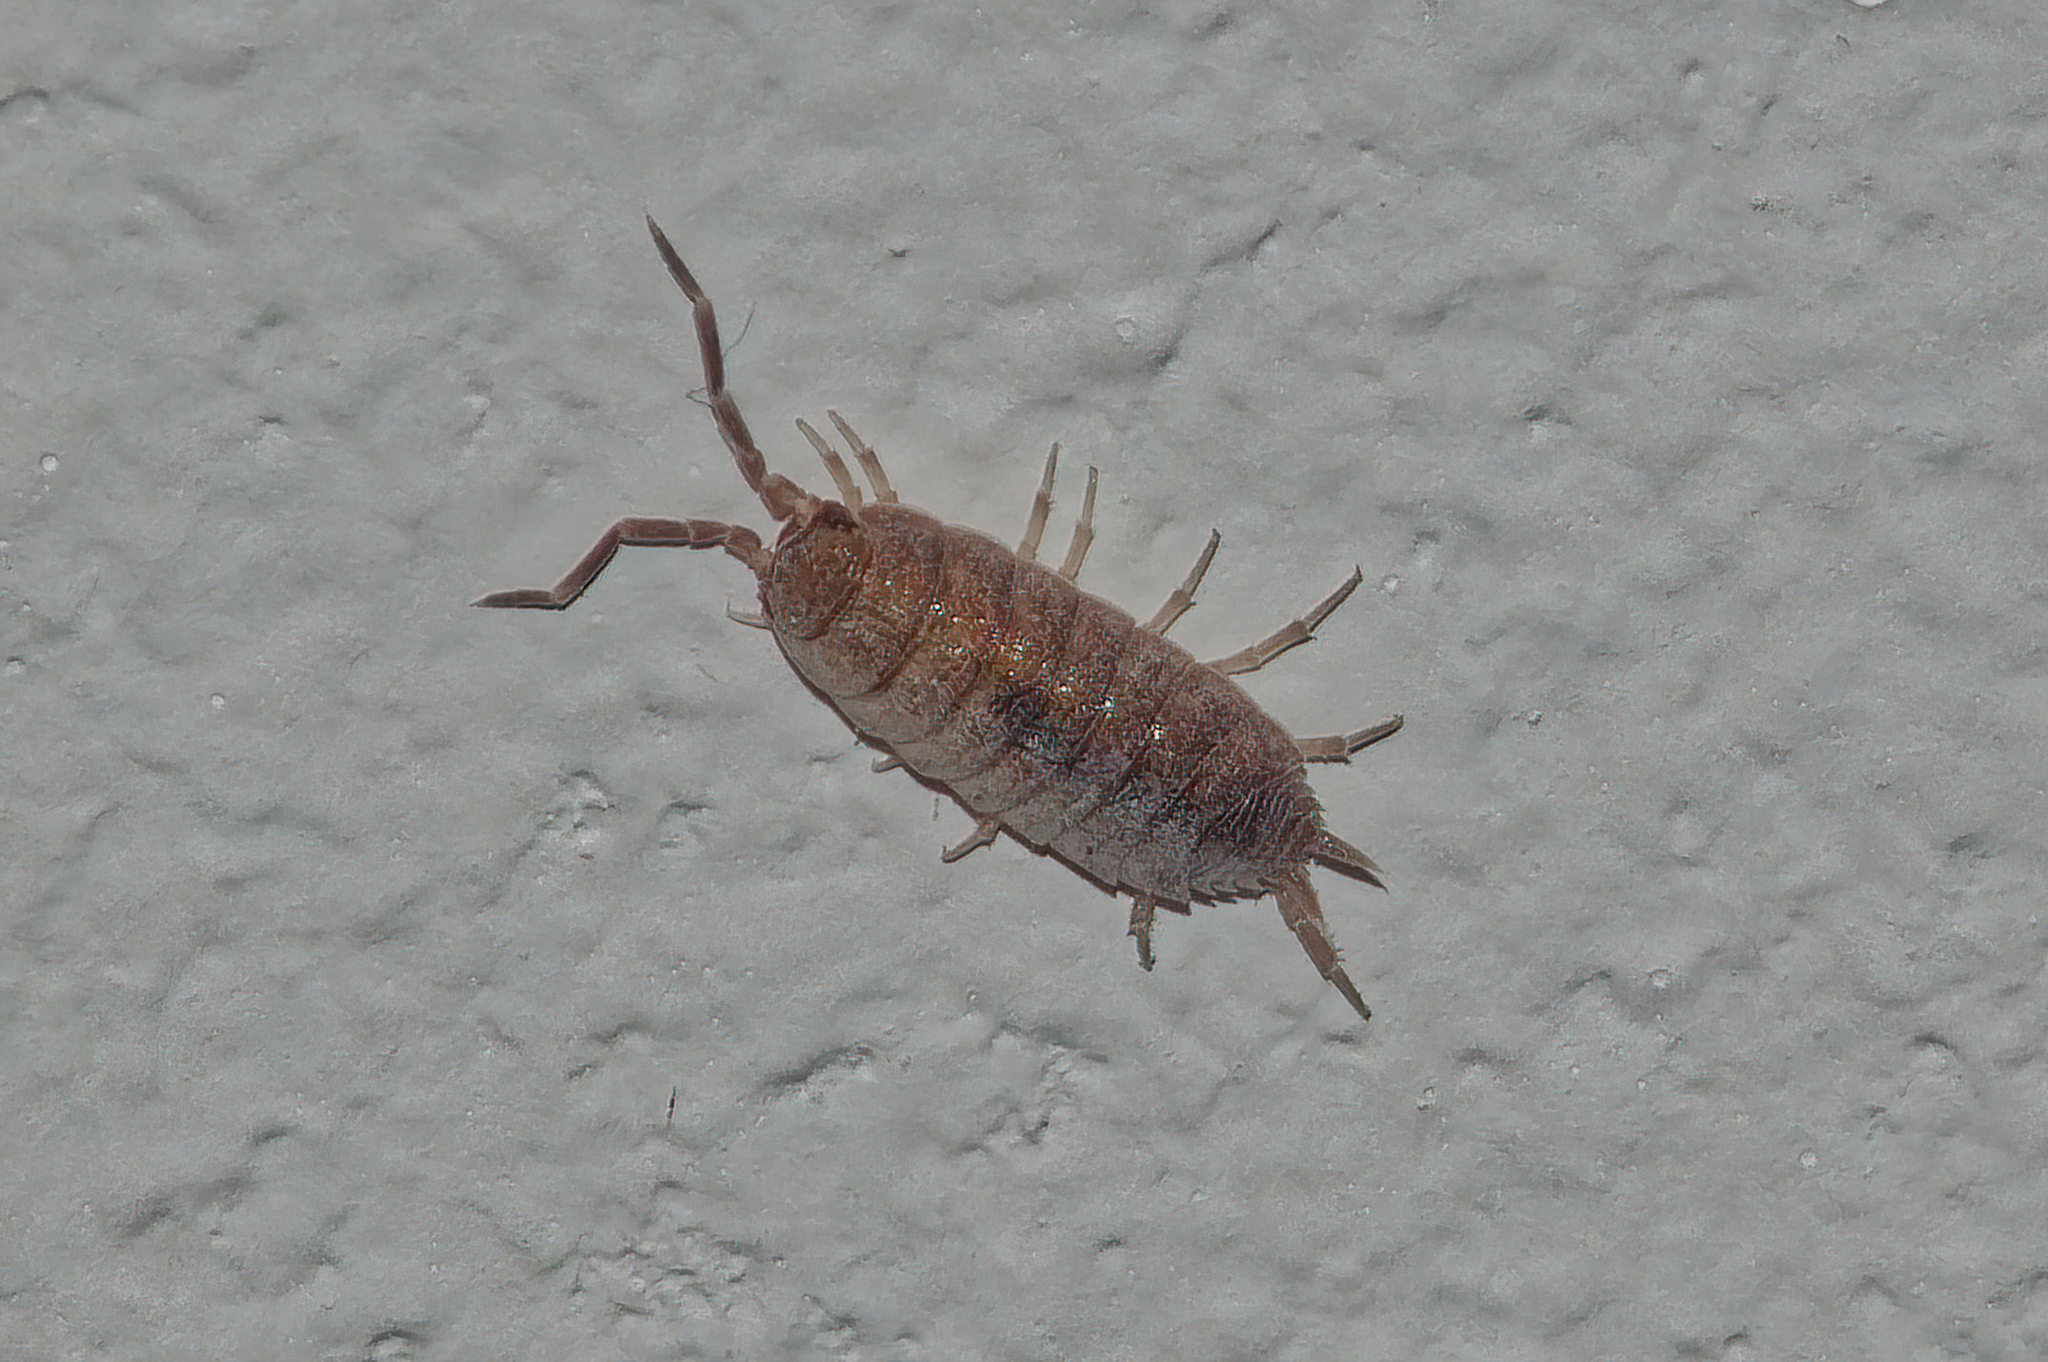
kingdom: Animalia
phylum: Arthropoda
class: Malacostraca
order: Isopoda
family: Porcellionidae
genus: Porcellionides
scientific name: Porcellionides pruinosus
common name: Plum woodlouse
